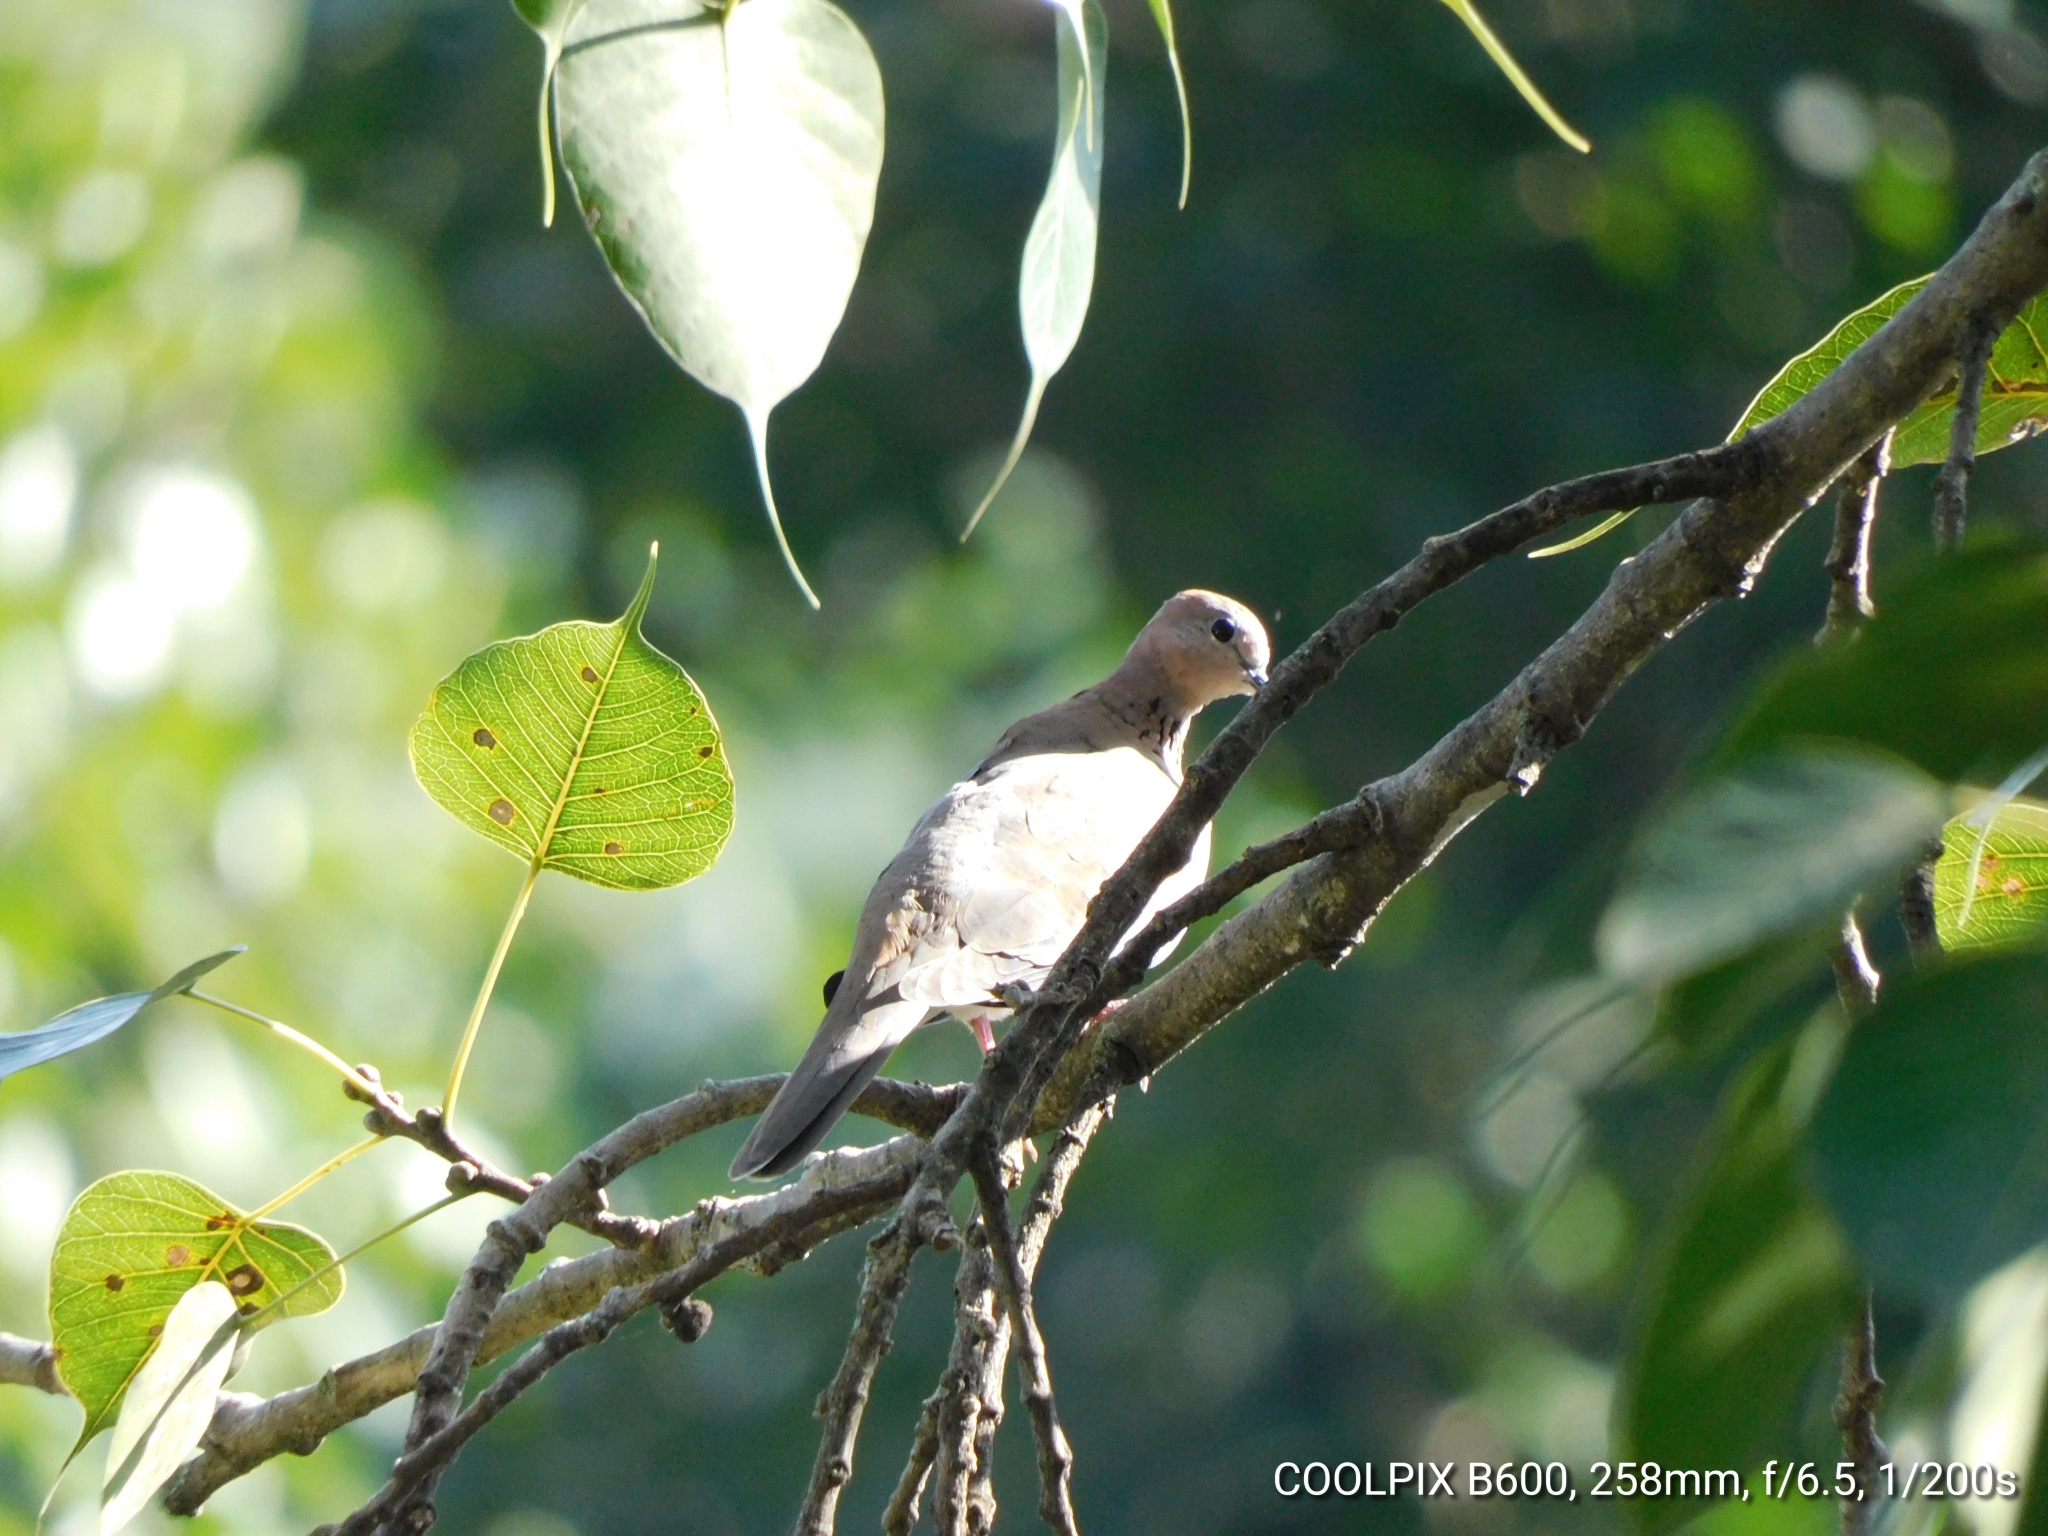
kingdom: Animalia
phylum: Chordata
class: Aves
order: Columbiformes
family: Columbidae
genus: Spilopelia
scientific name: Spilopelia senegalensis
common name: Laughing dove
